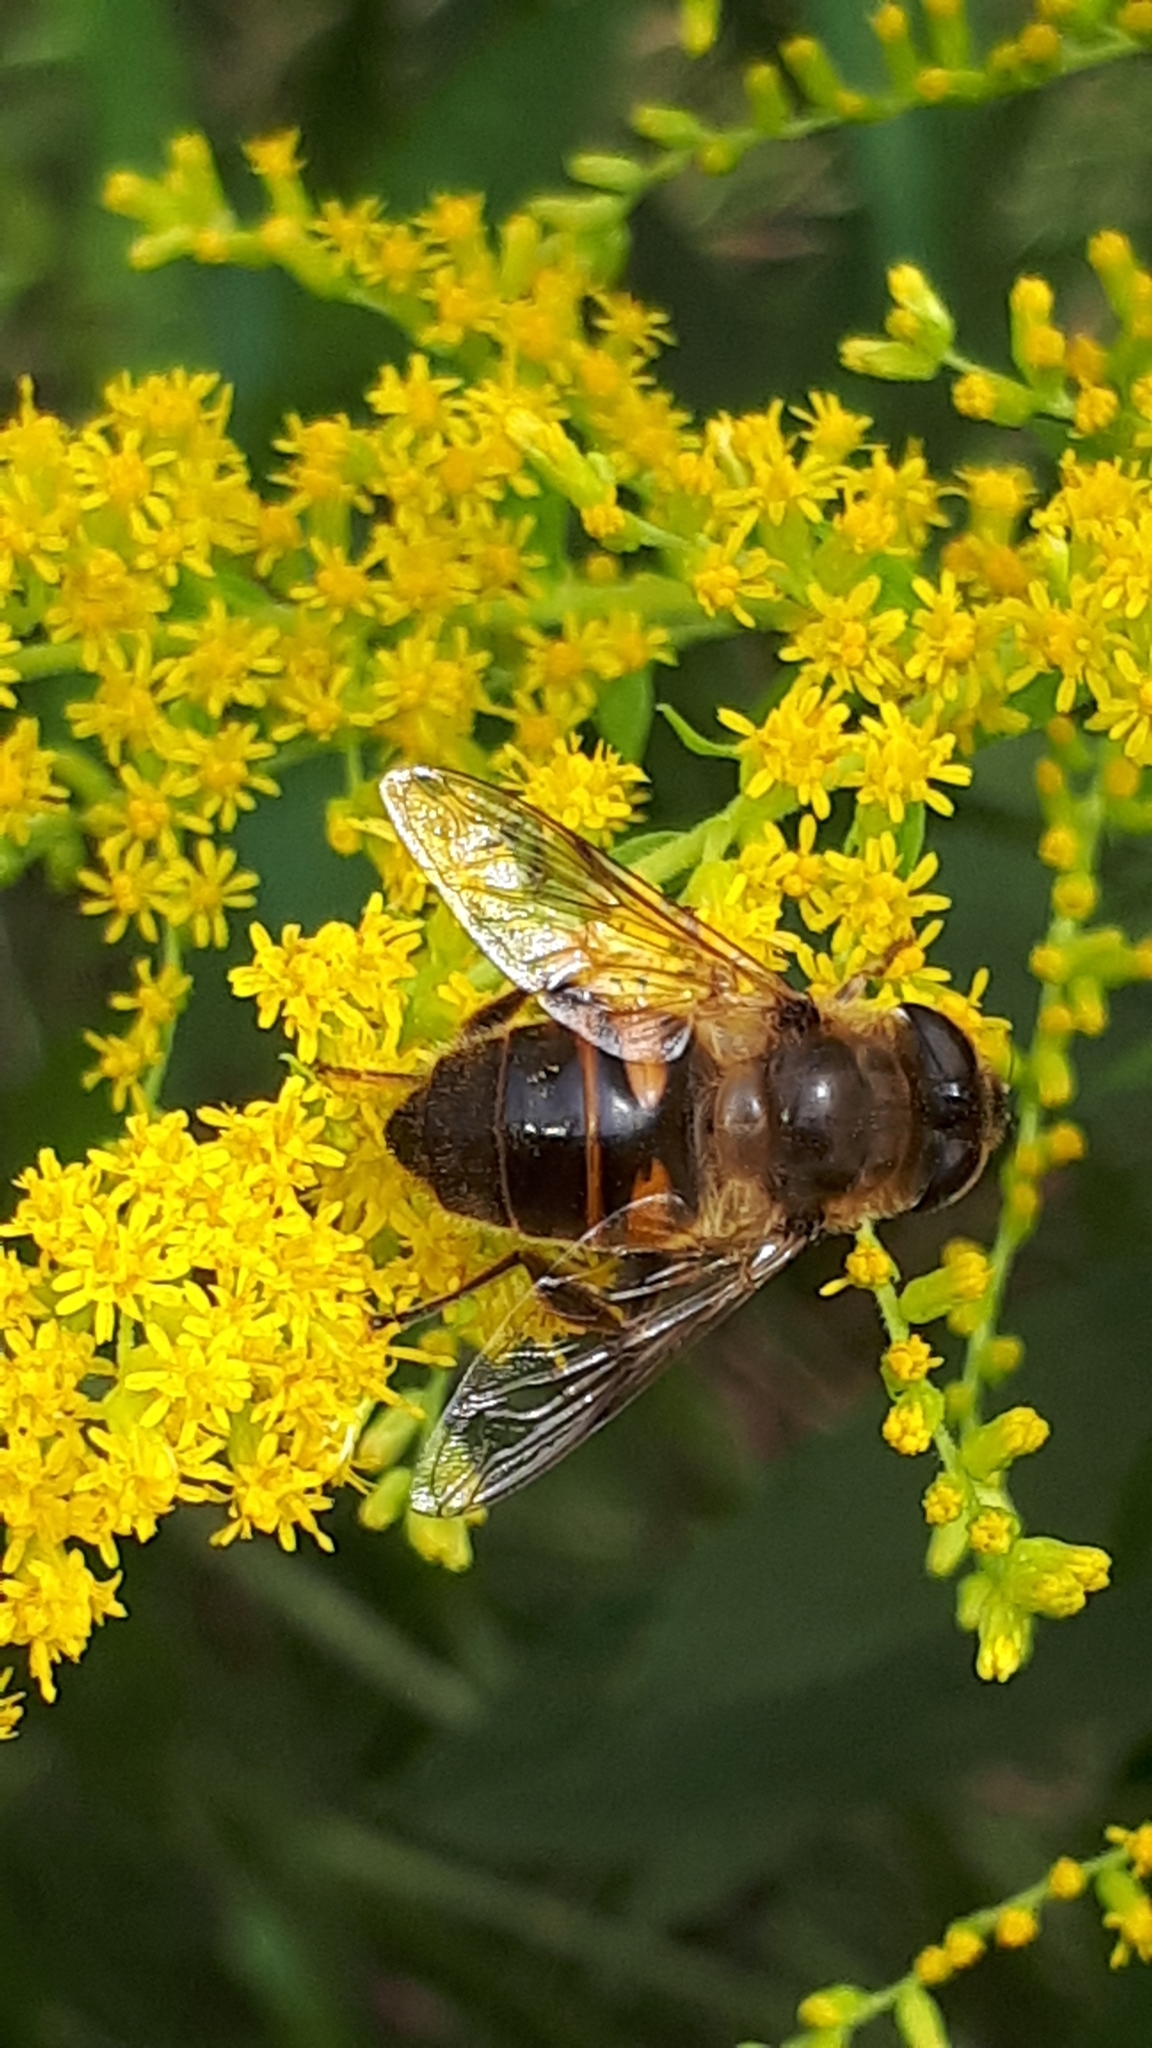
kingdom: Animalia
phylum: Arthropoda
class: Insecta
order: Diptera
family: Syrphidae
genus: Eristalis
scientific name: Eristalis tenax
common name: Drone fly
